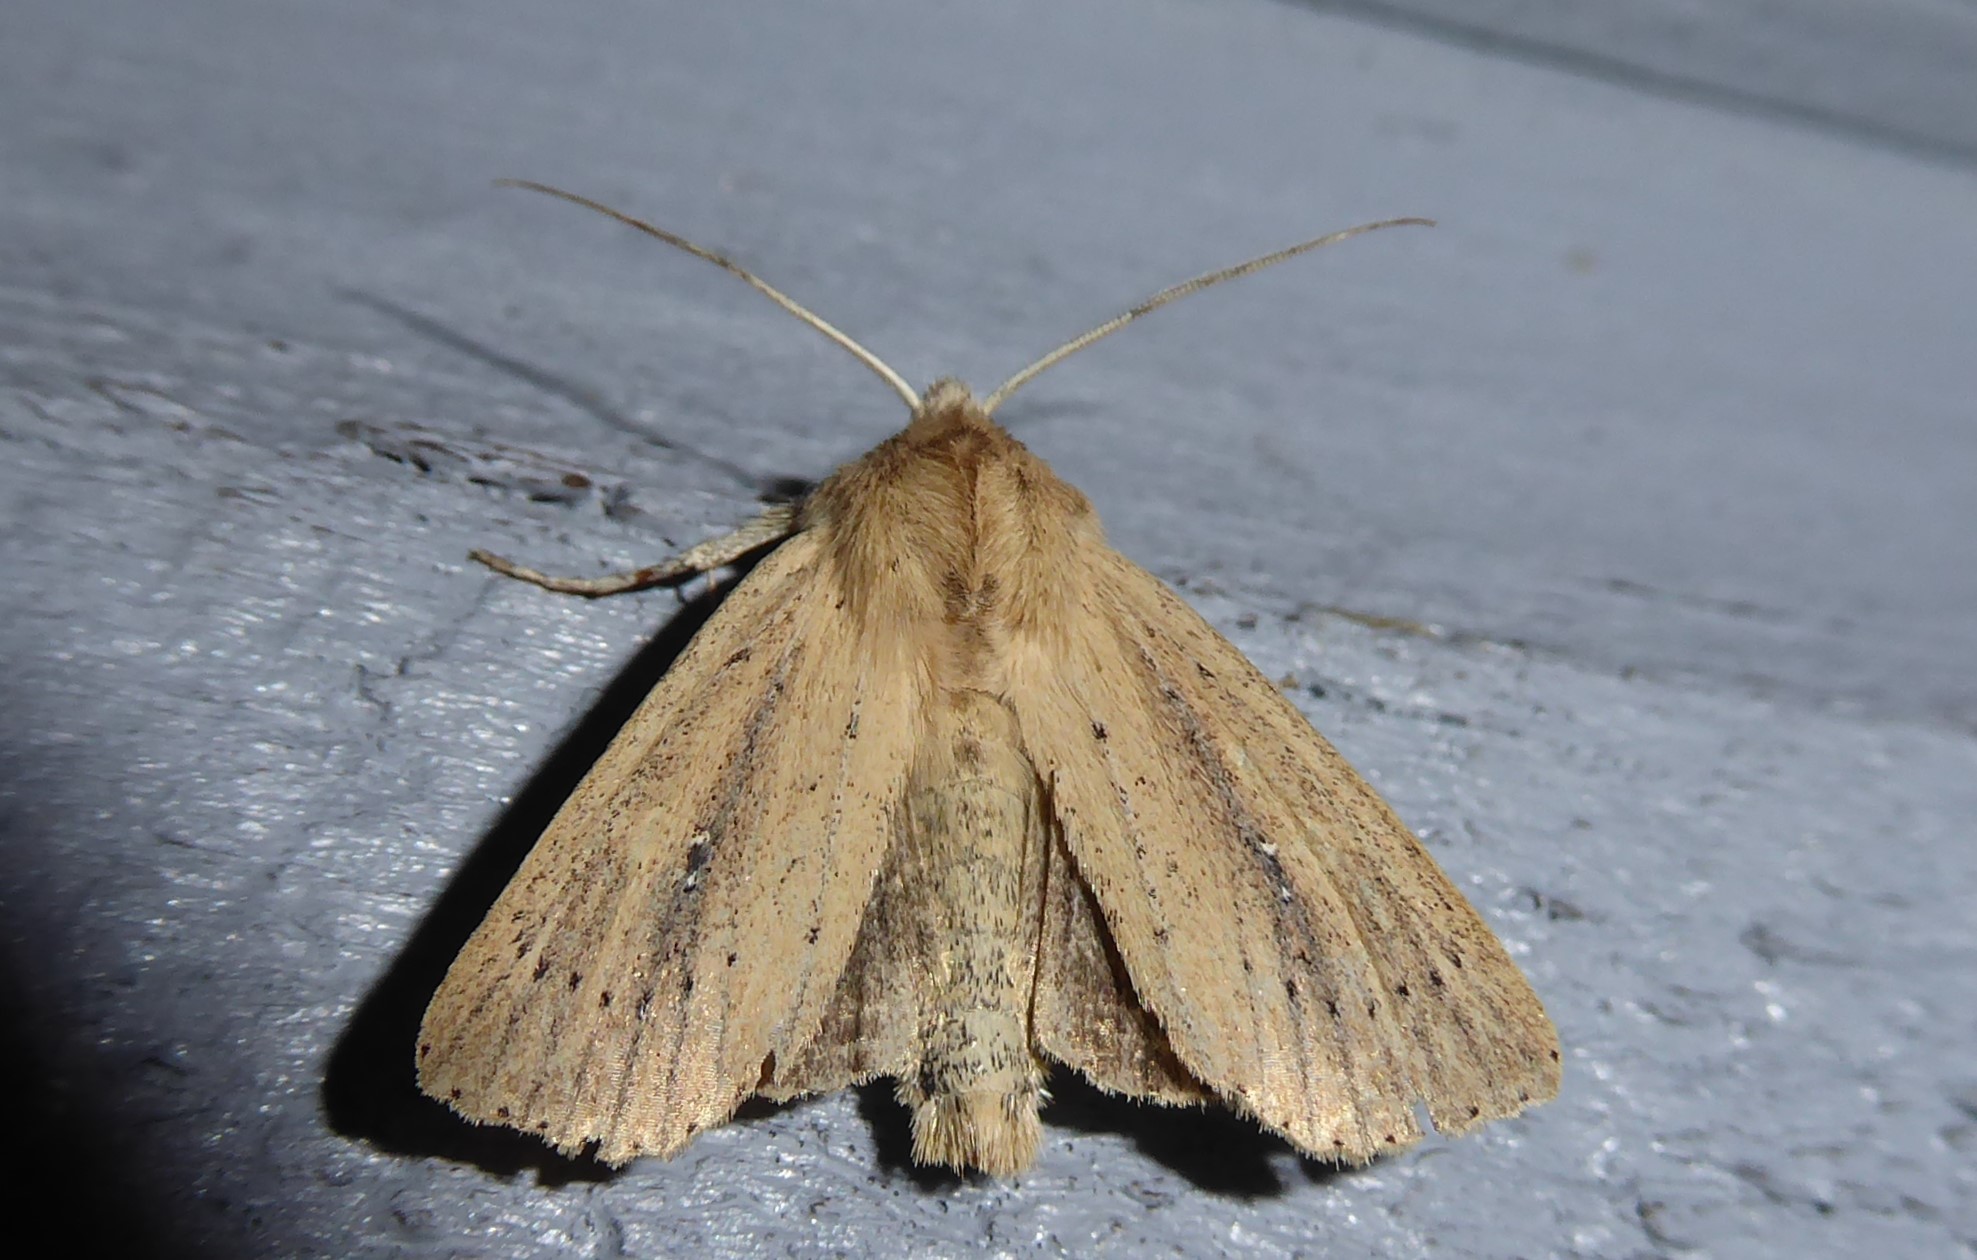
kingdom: Animalia
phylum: Arthropoda
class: Insecta
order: Lepidoptera
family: Noctuidae
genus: Ichneutica
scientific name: Ichneutica
